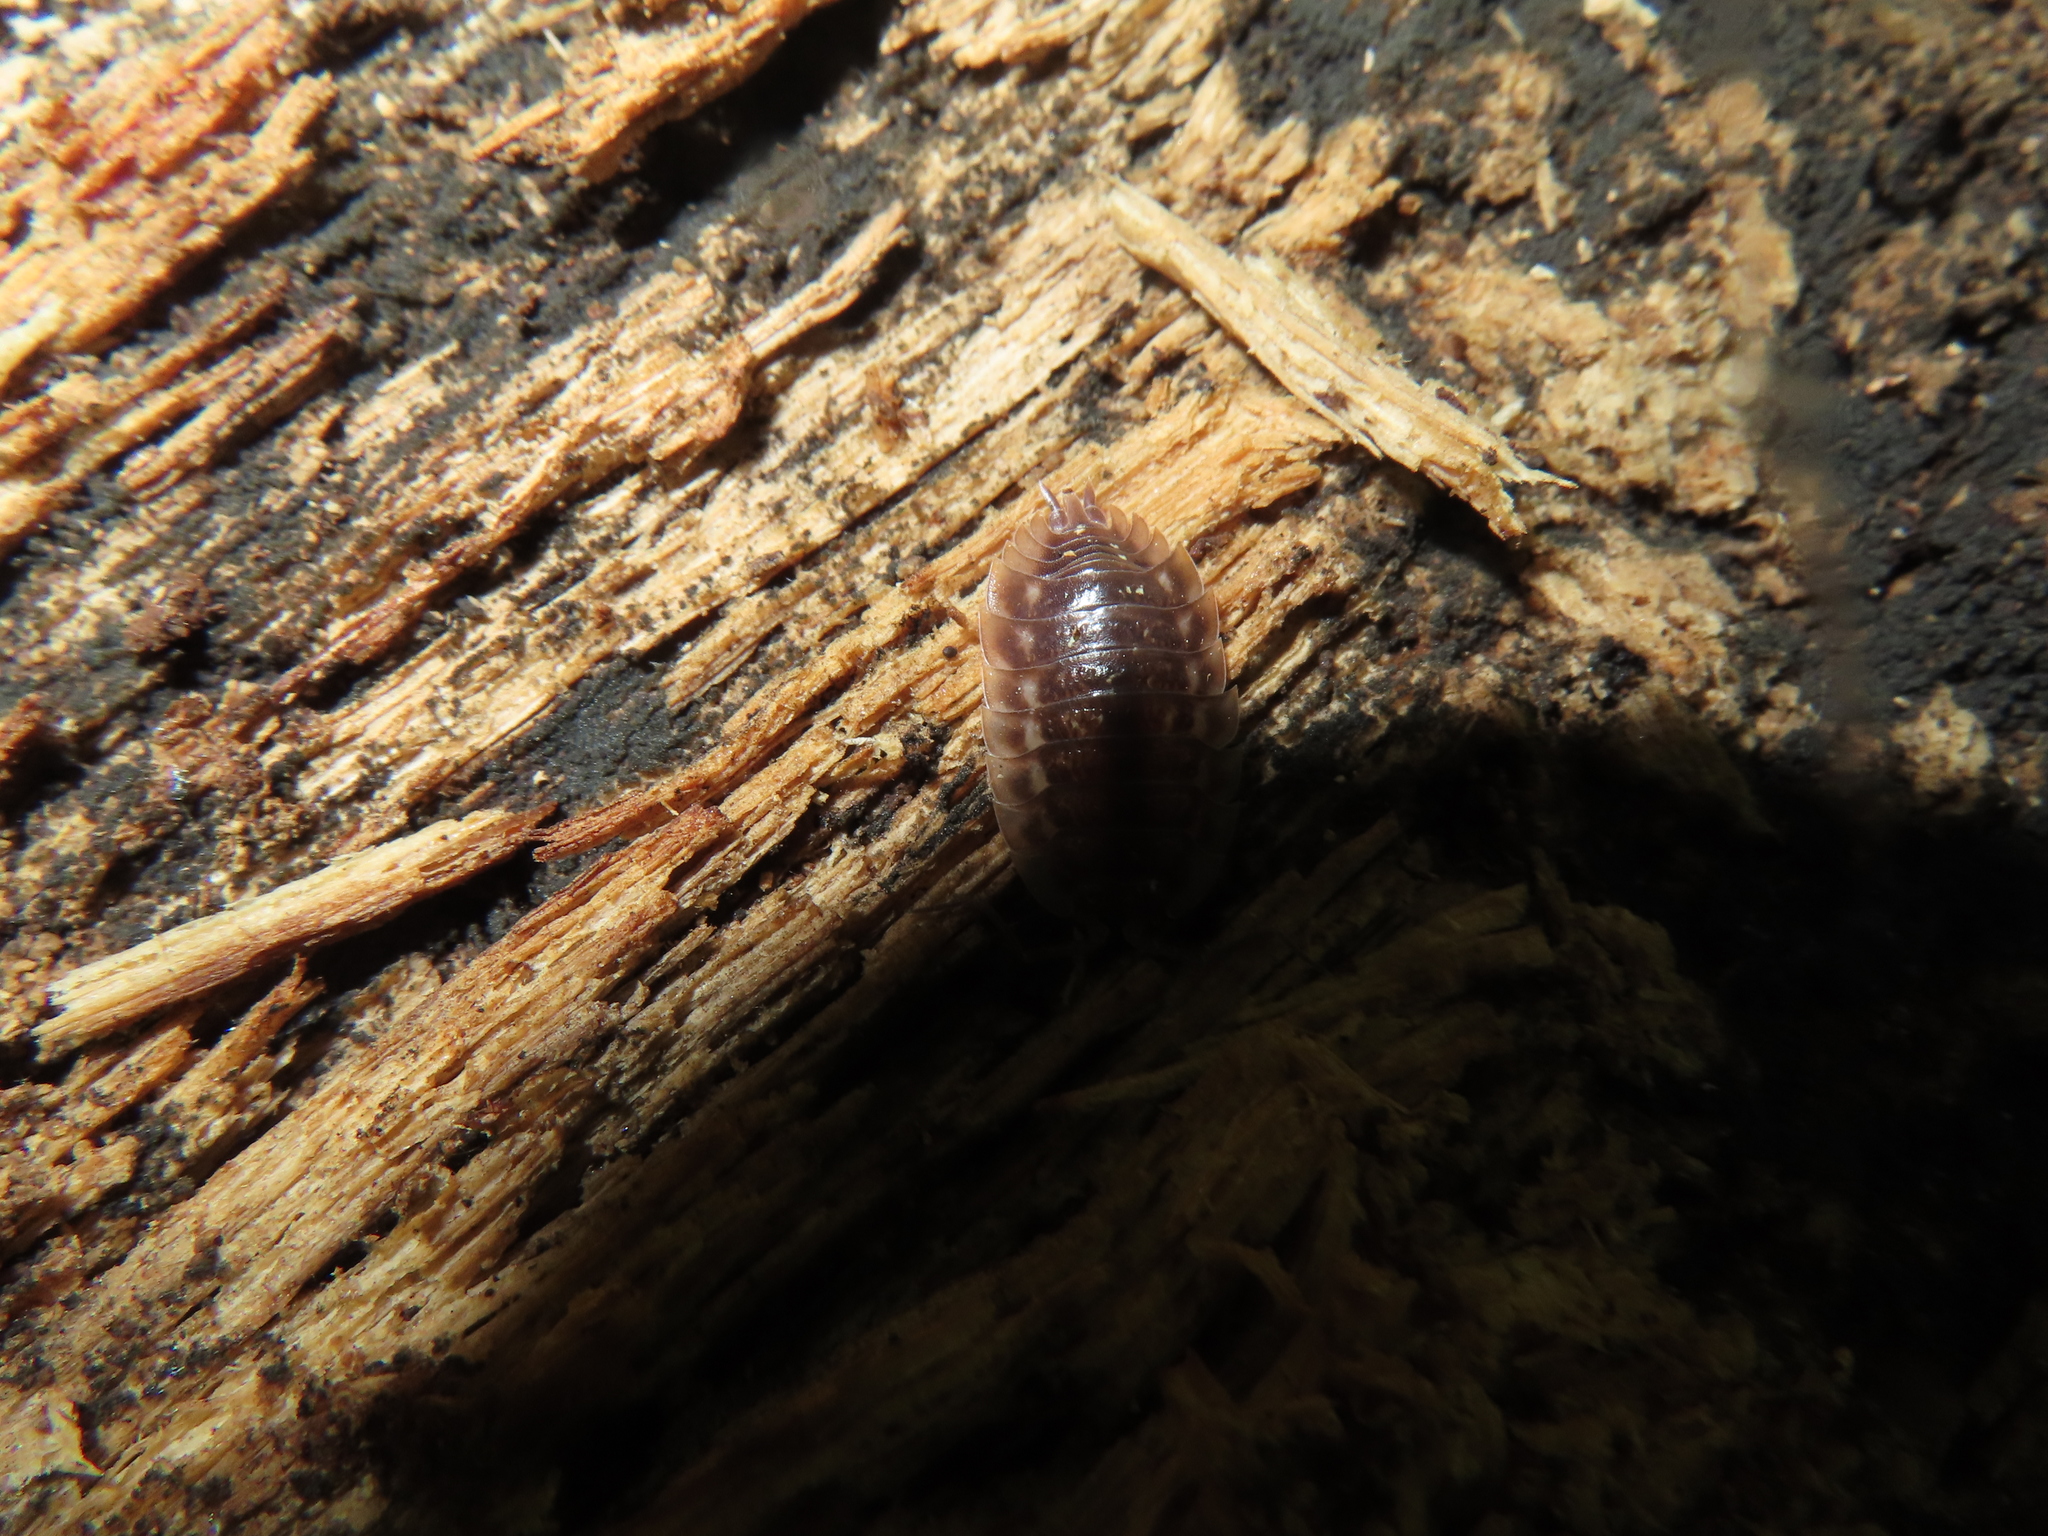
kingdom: Animalia
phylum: Arthropoda
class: Malacostraca
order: Isopoda
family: Oniscidae
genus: Oniscus
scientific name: Oniscus asellus
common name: Common shiny woodlouse
